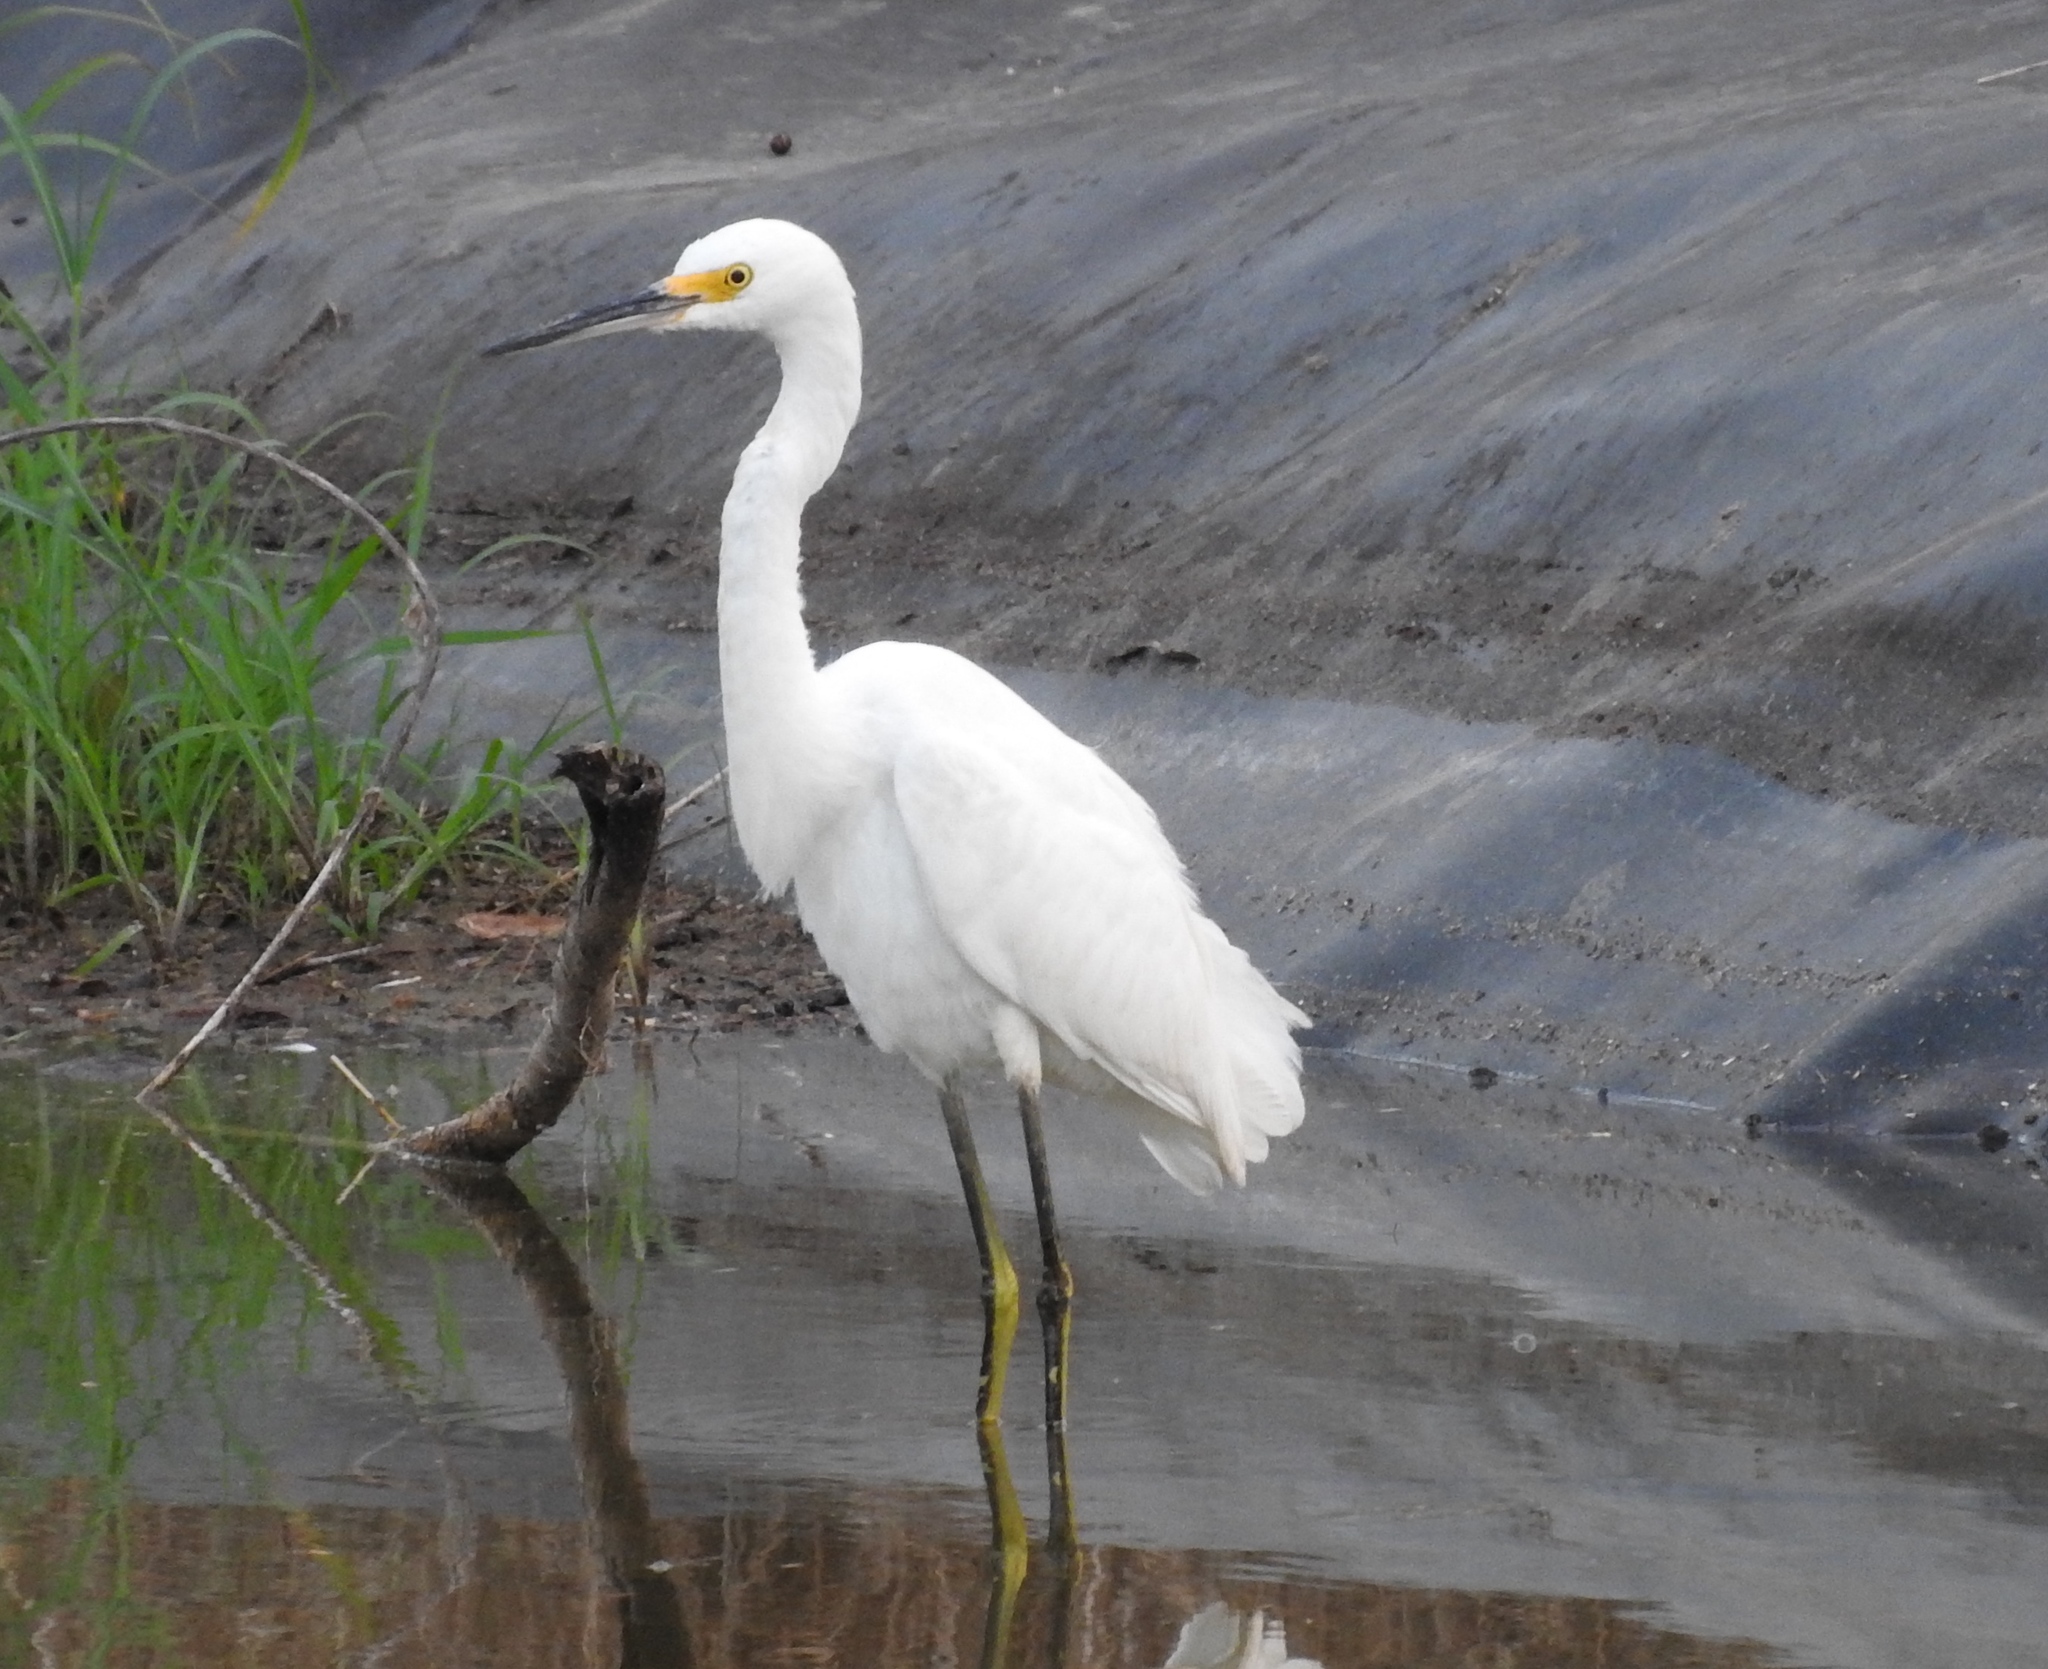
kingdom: Animalia
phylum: Chordata
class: Aves
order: Pelecaniformes
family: Ardeidae
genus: Egretta
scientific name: Egretta thula
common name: Snowy egret
